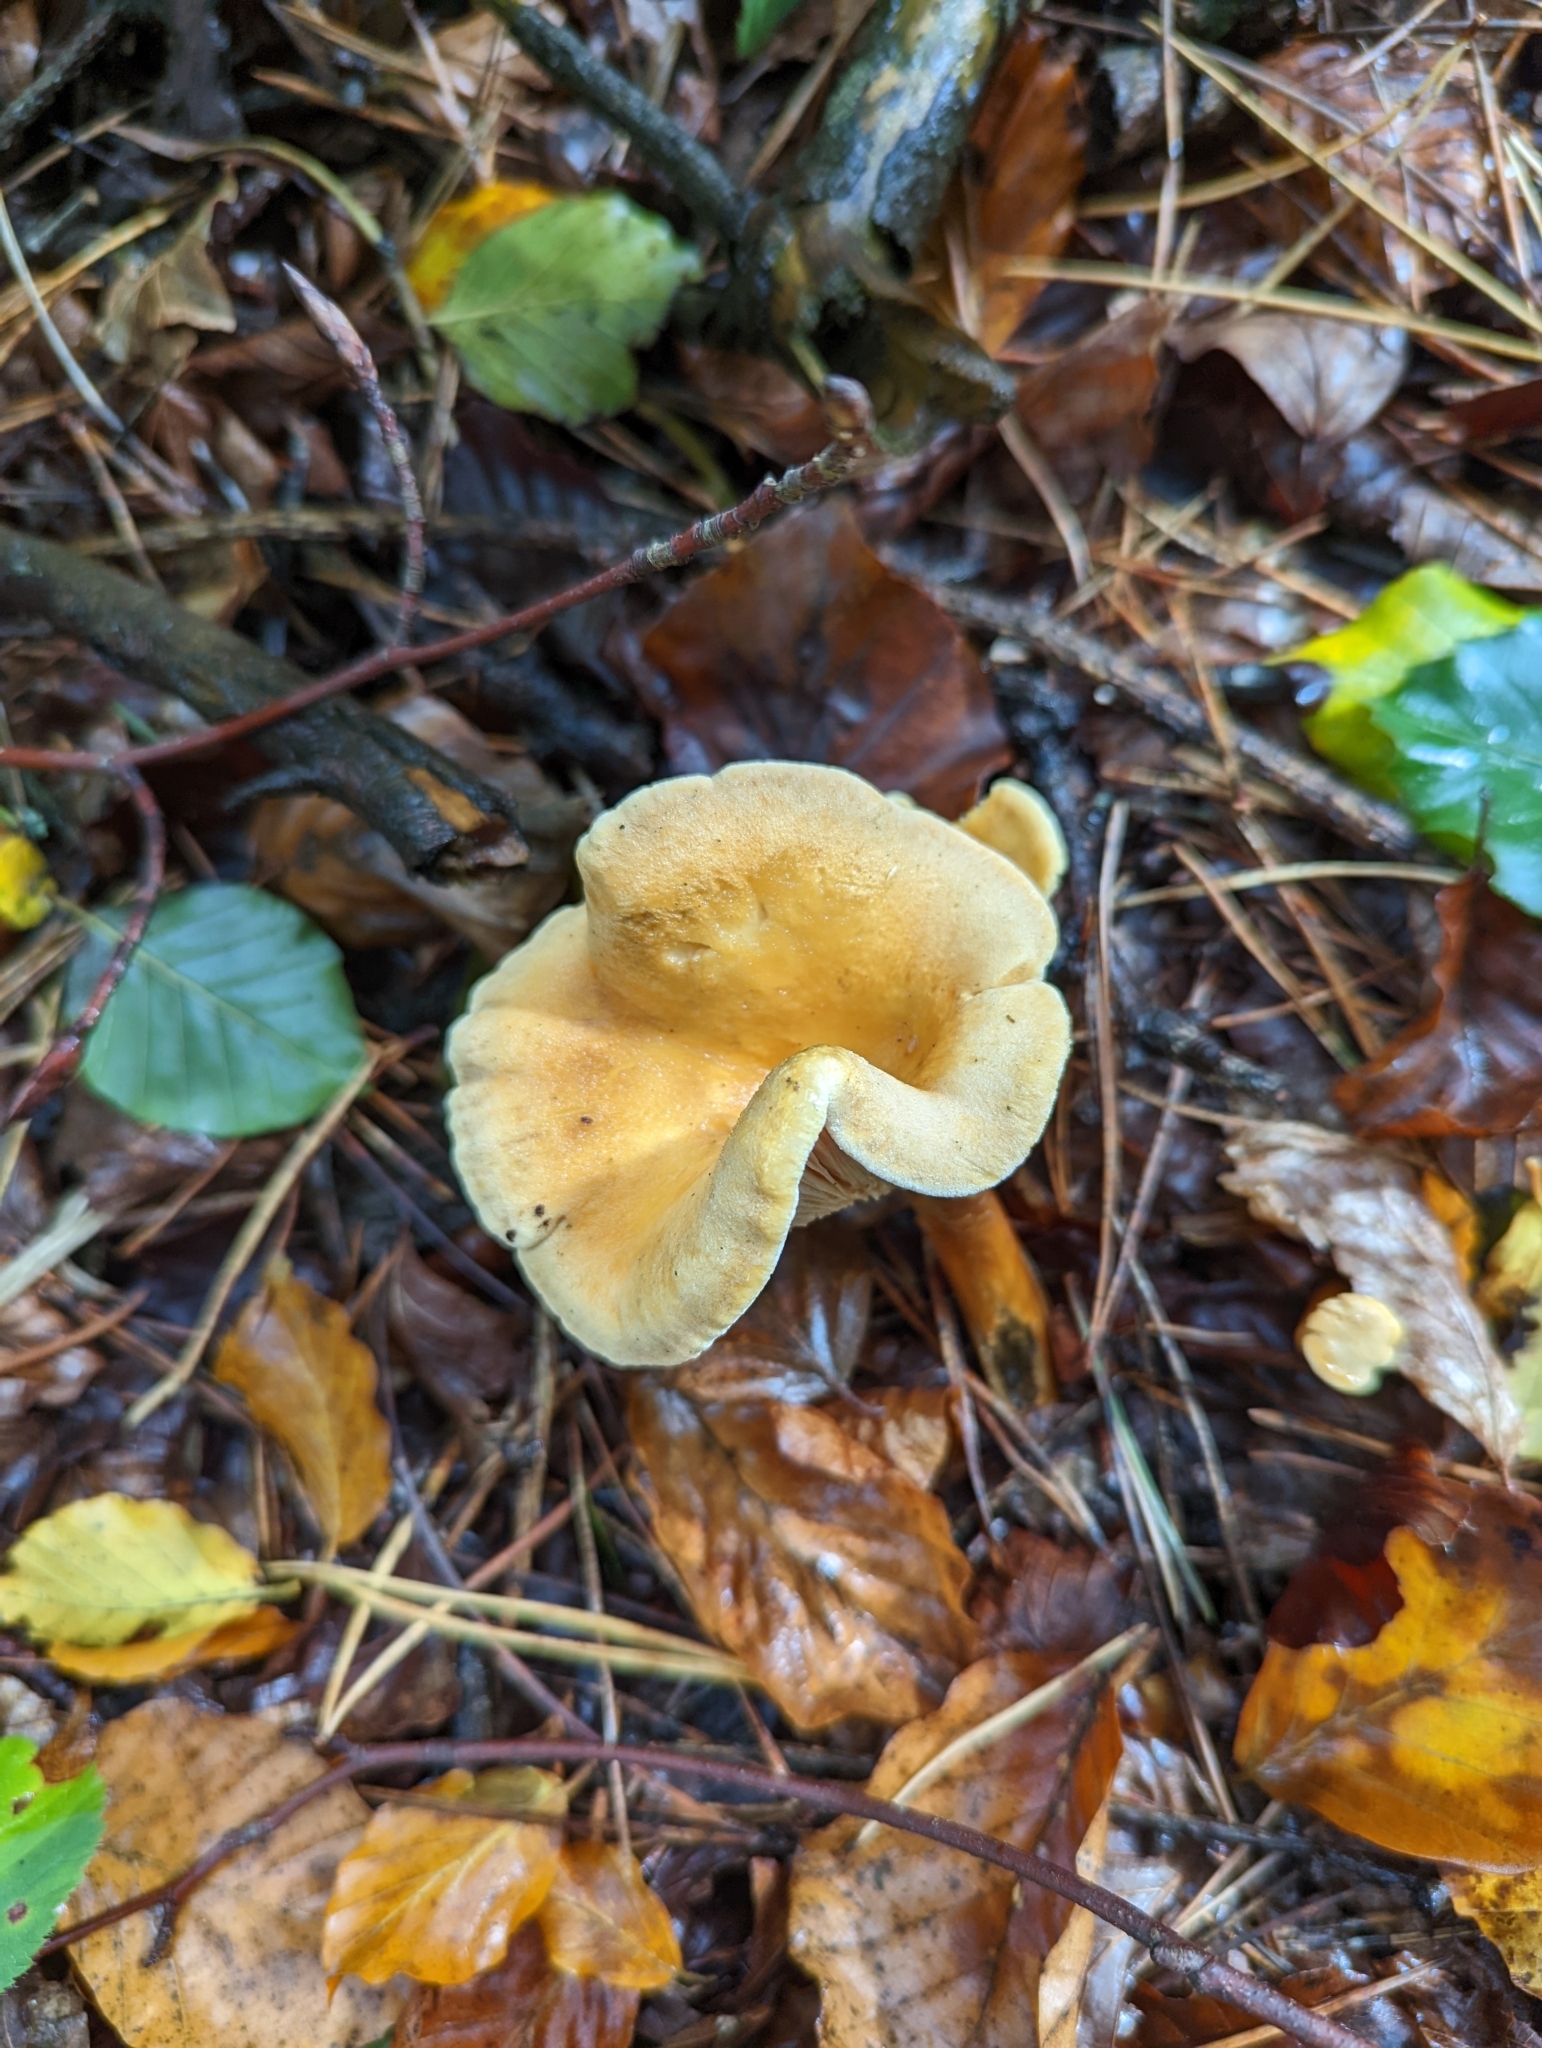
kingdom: Fungi
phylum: Basidiomycota
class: Agaricomycetes
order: Boletales
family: Hygrophoropsidaceae
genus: Hygrophoropsis
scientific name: Hygrophoropsis aurantiaca
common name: False chanterelle
